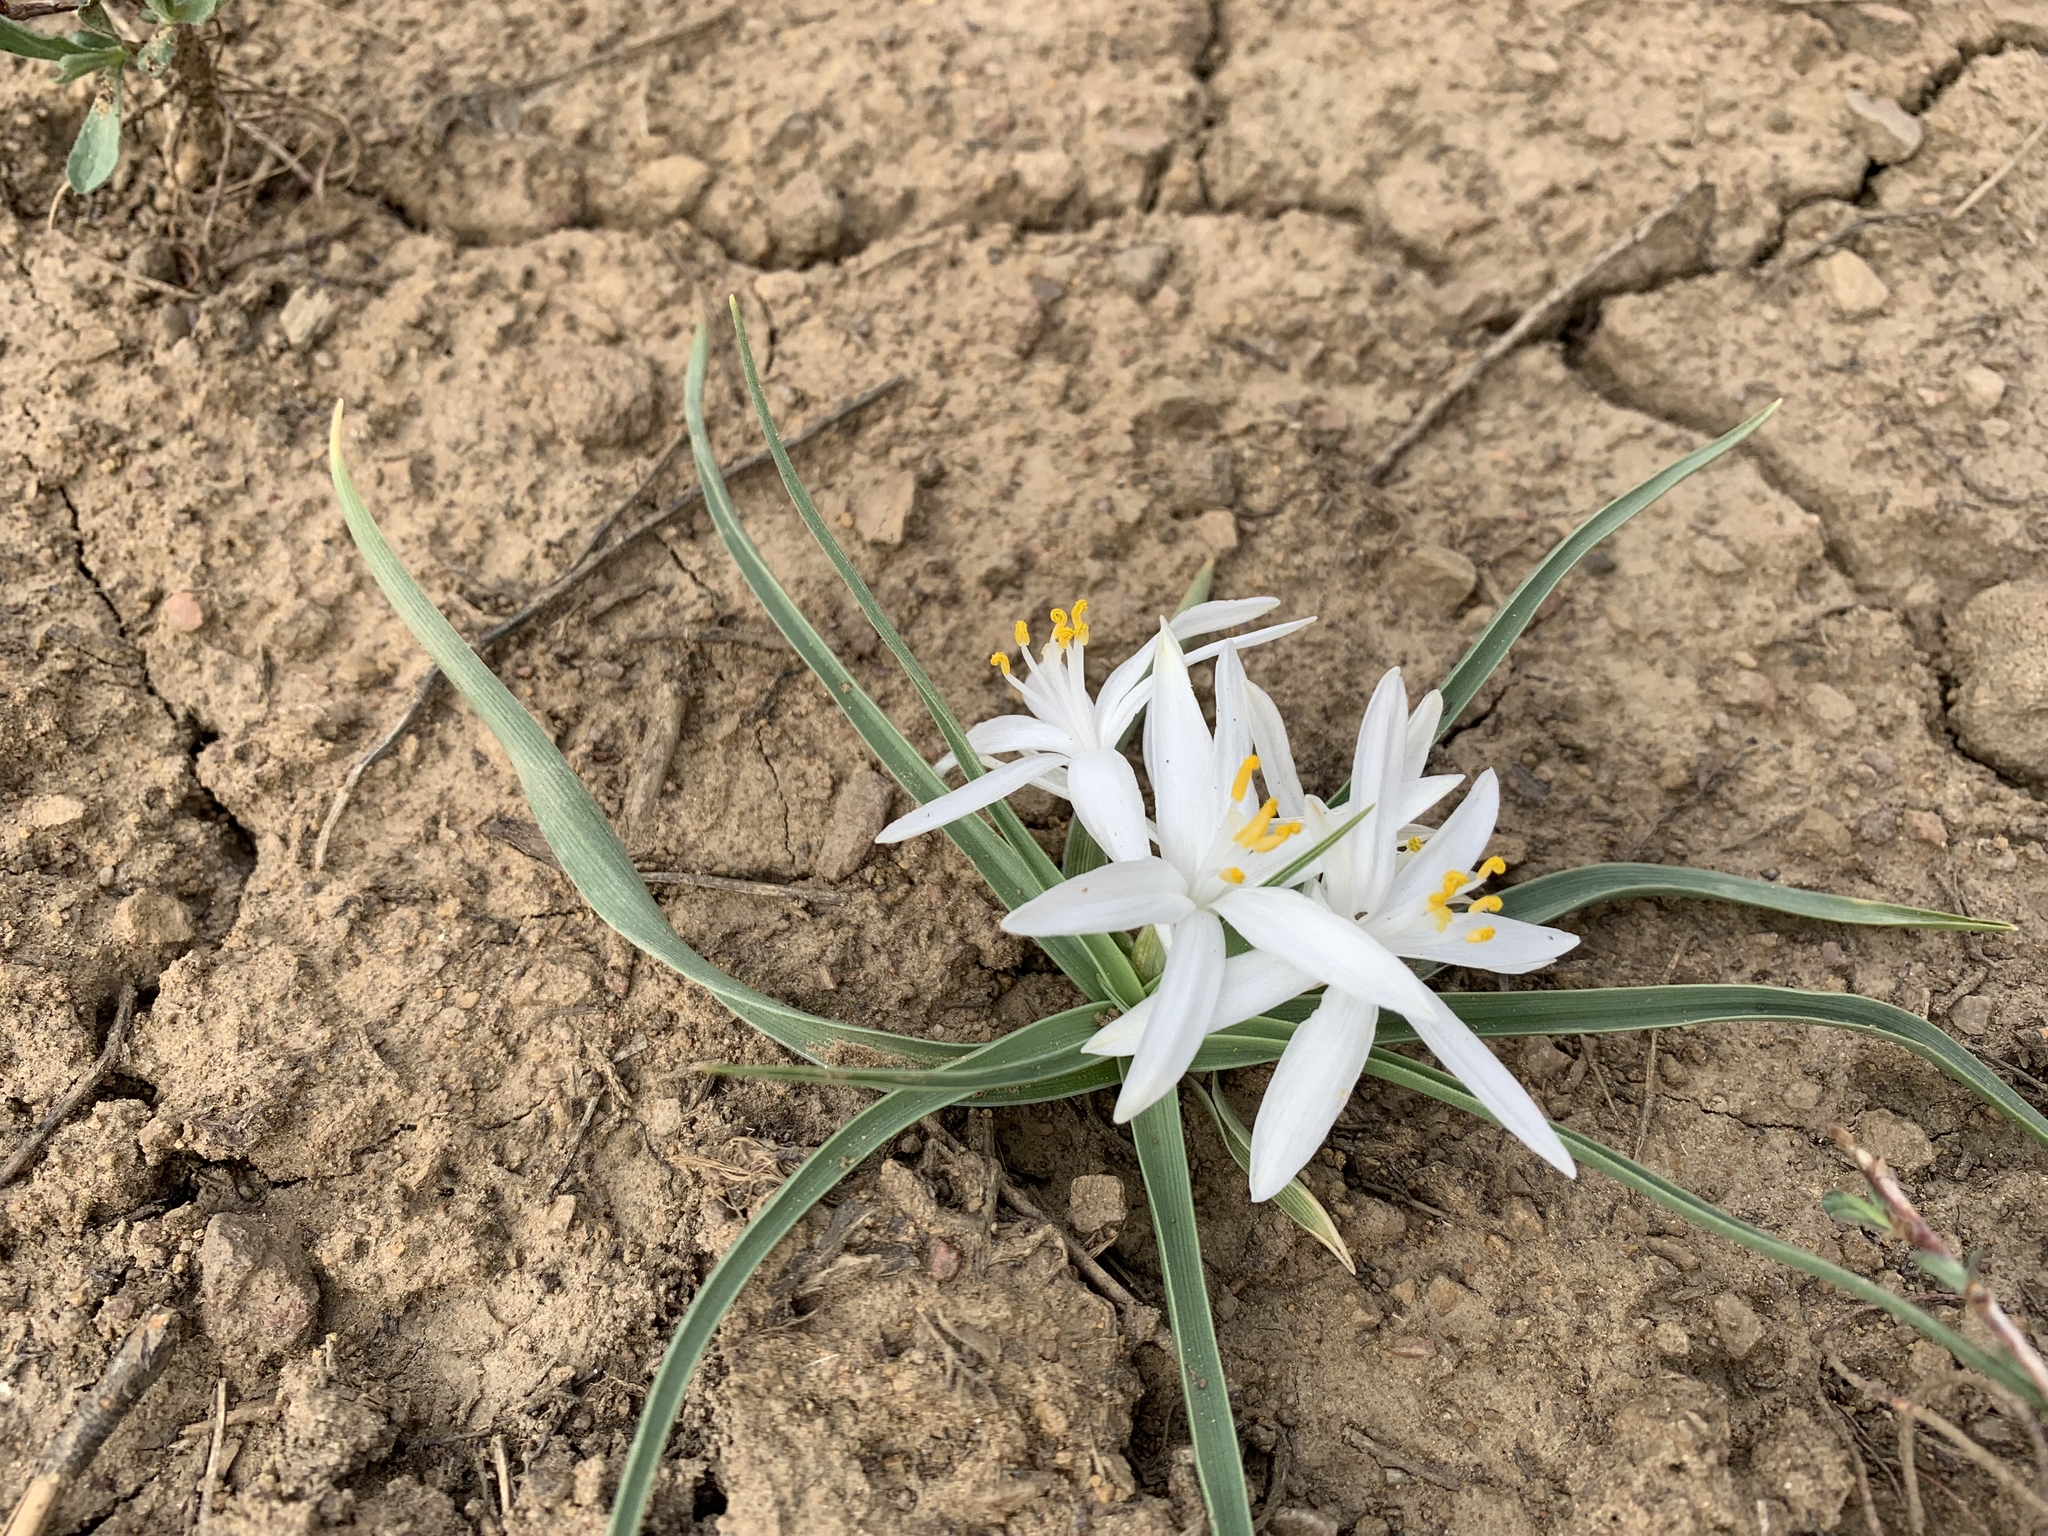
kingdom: Plantae
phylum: Tracheophyta
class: Liliopsida
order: Asparagales
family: Asparagaceae
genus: Leucocrinum
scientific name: Leucocrinum montanum
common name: Mountain-lily
